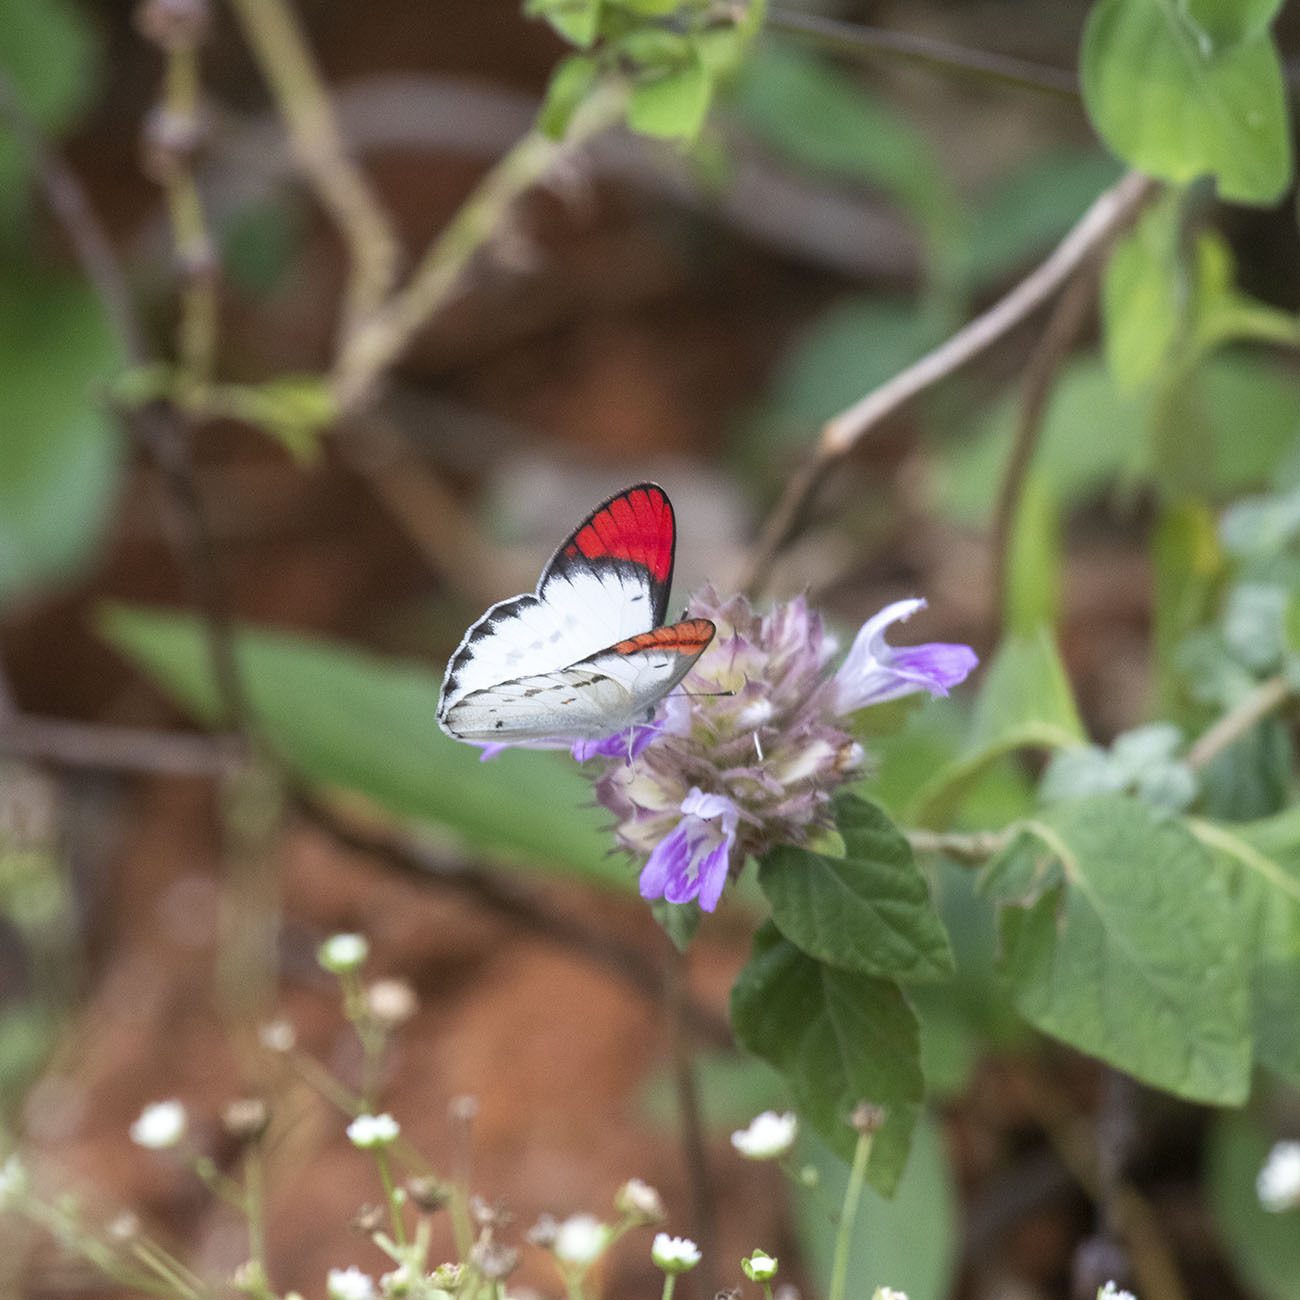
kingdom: Animalia
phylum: Arthropoda
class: Insecta
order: Lepidoptera
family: Pieridae
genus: Colotis
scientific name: Colotis danae
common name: Crimson tip
